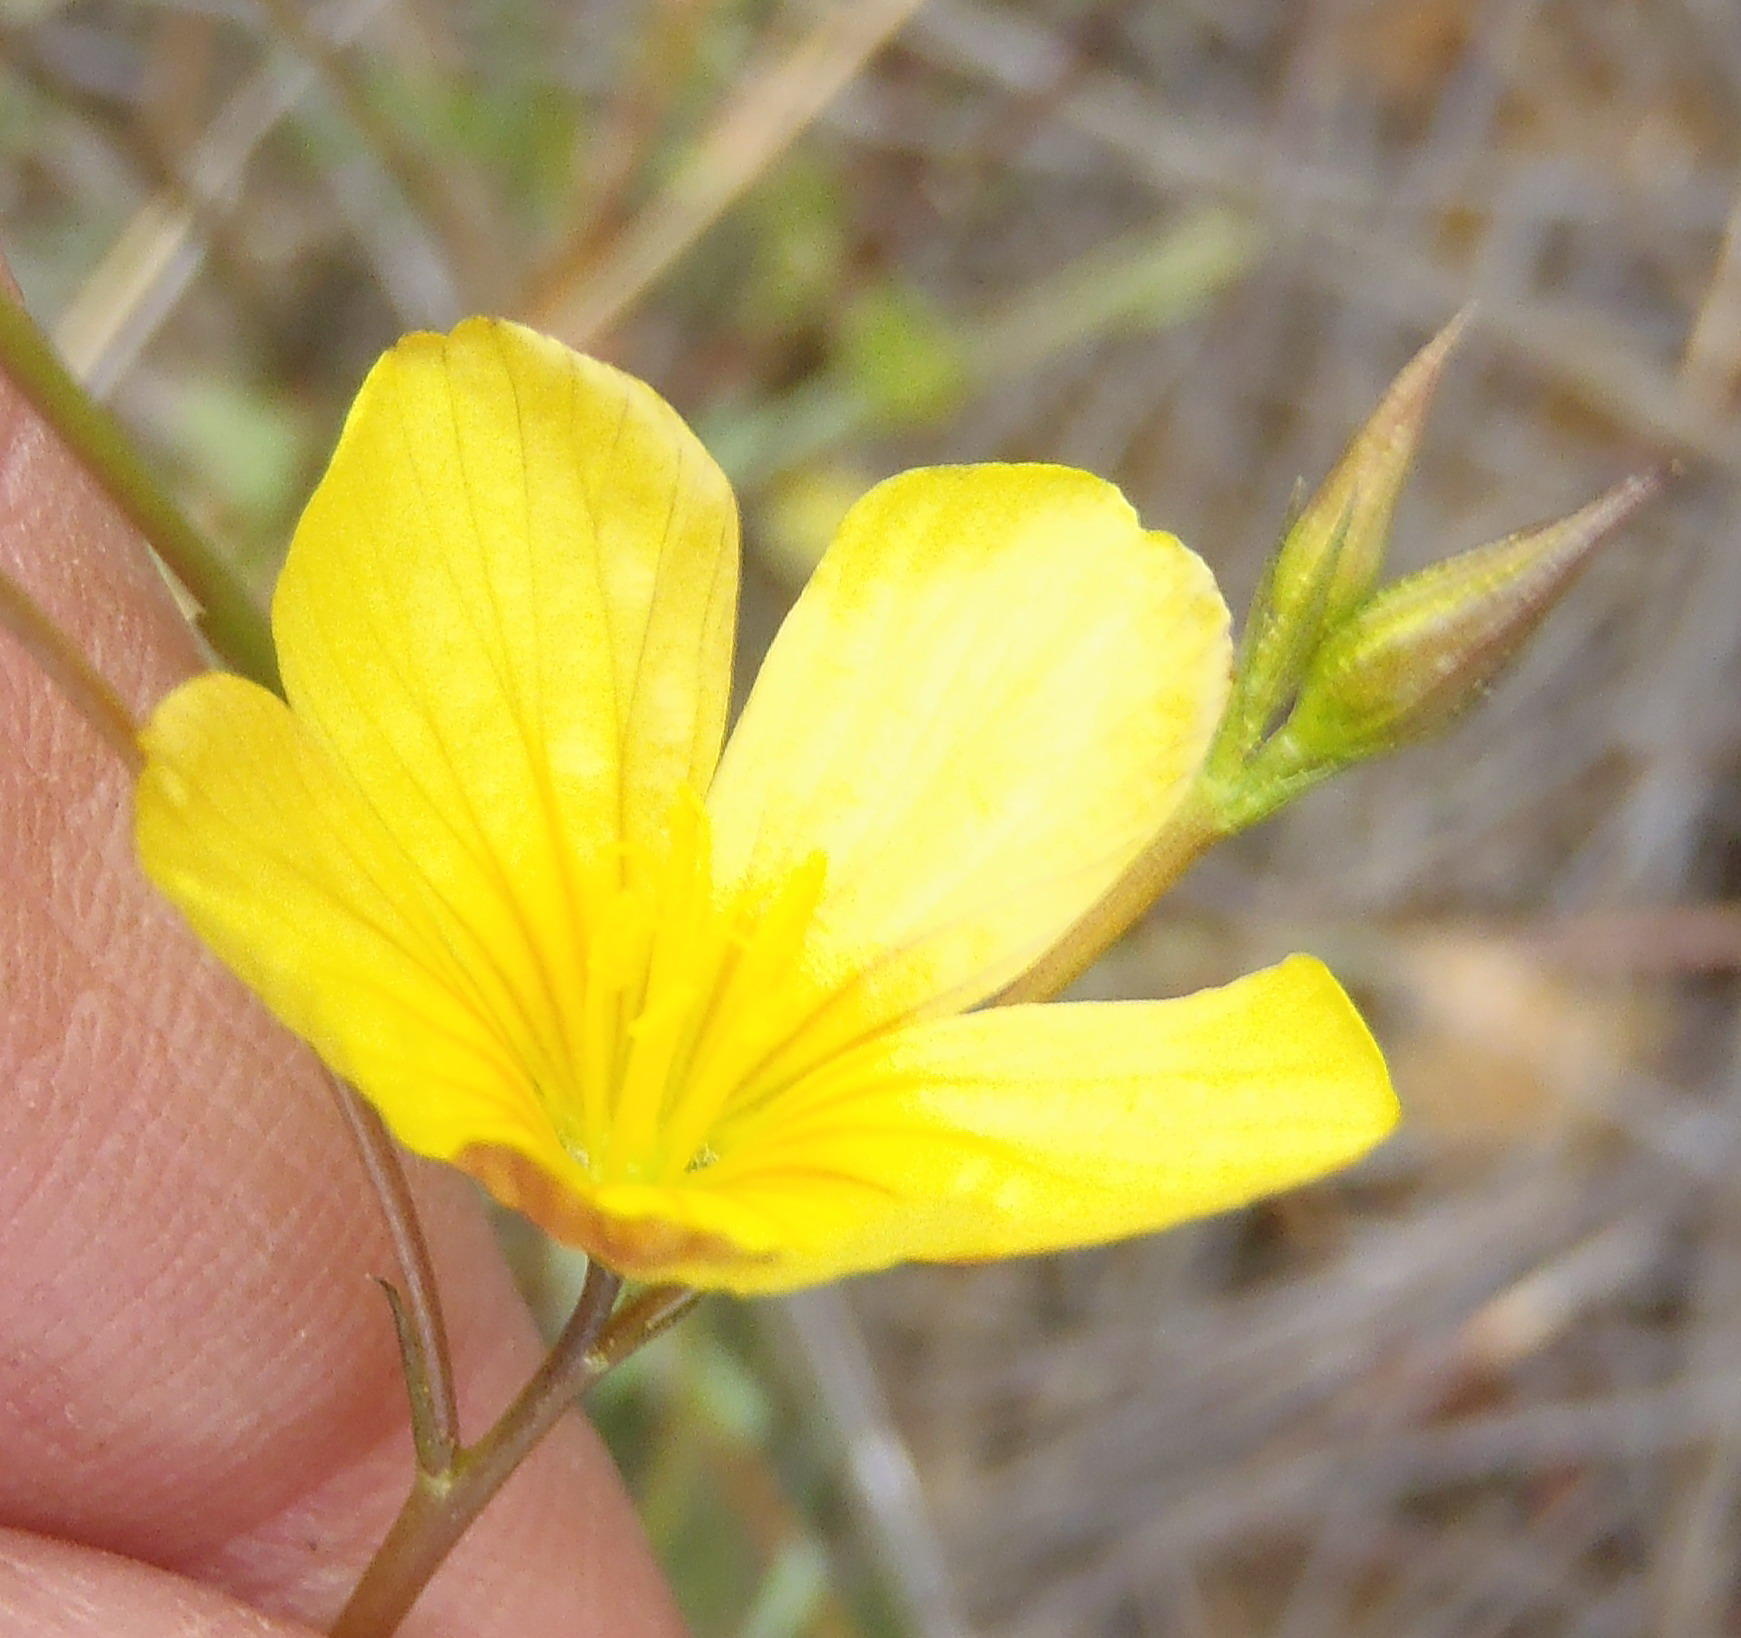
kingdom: Plantae
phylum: Tracheophyta
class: Magnoliopsida
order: Malpighiales
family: Linaceae
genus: Linum
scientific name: Linum africanum
